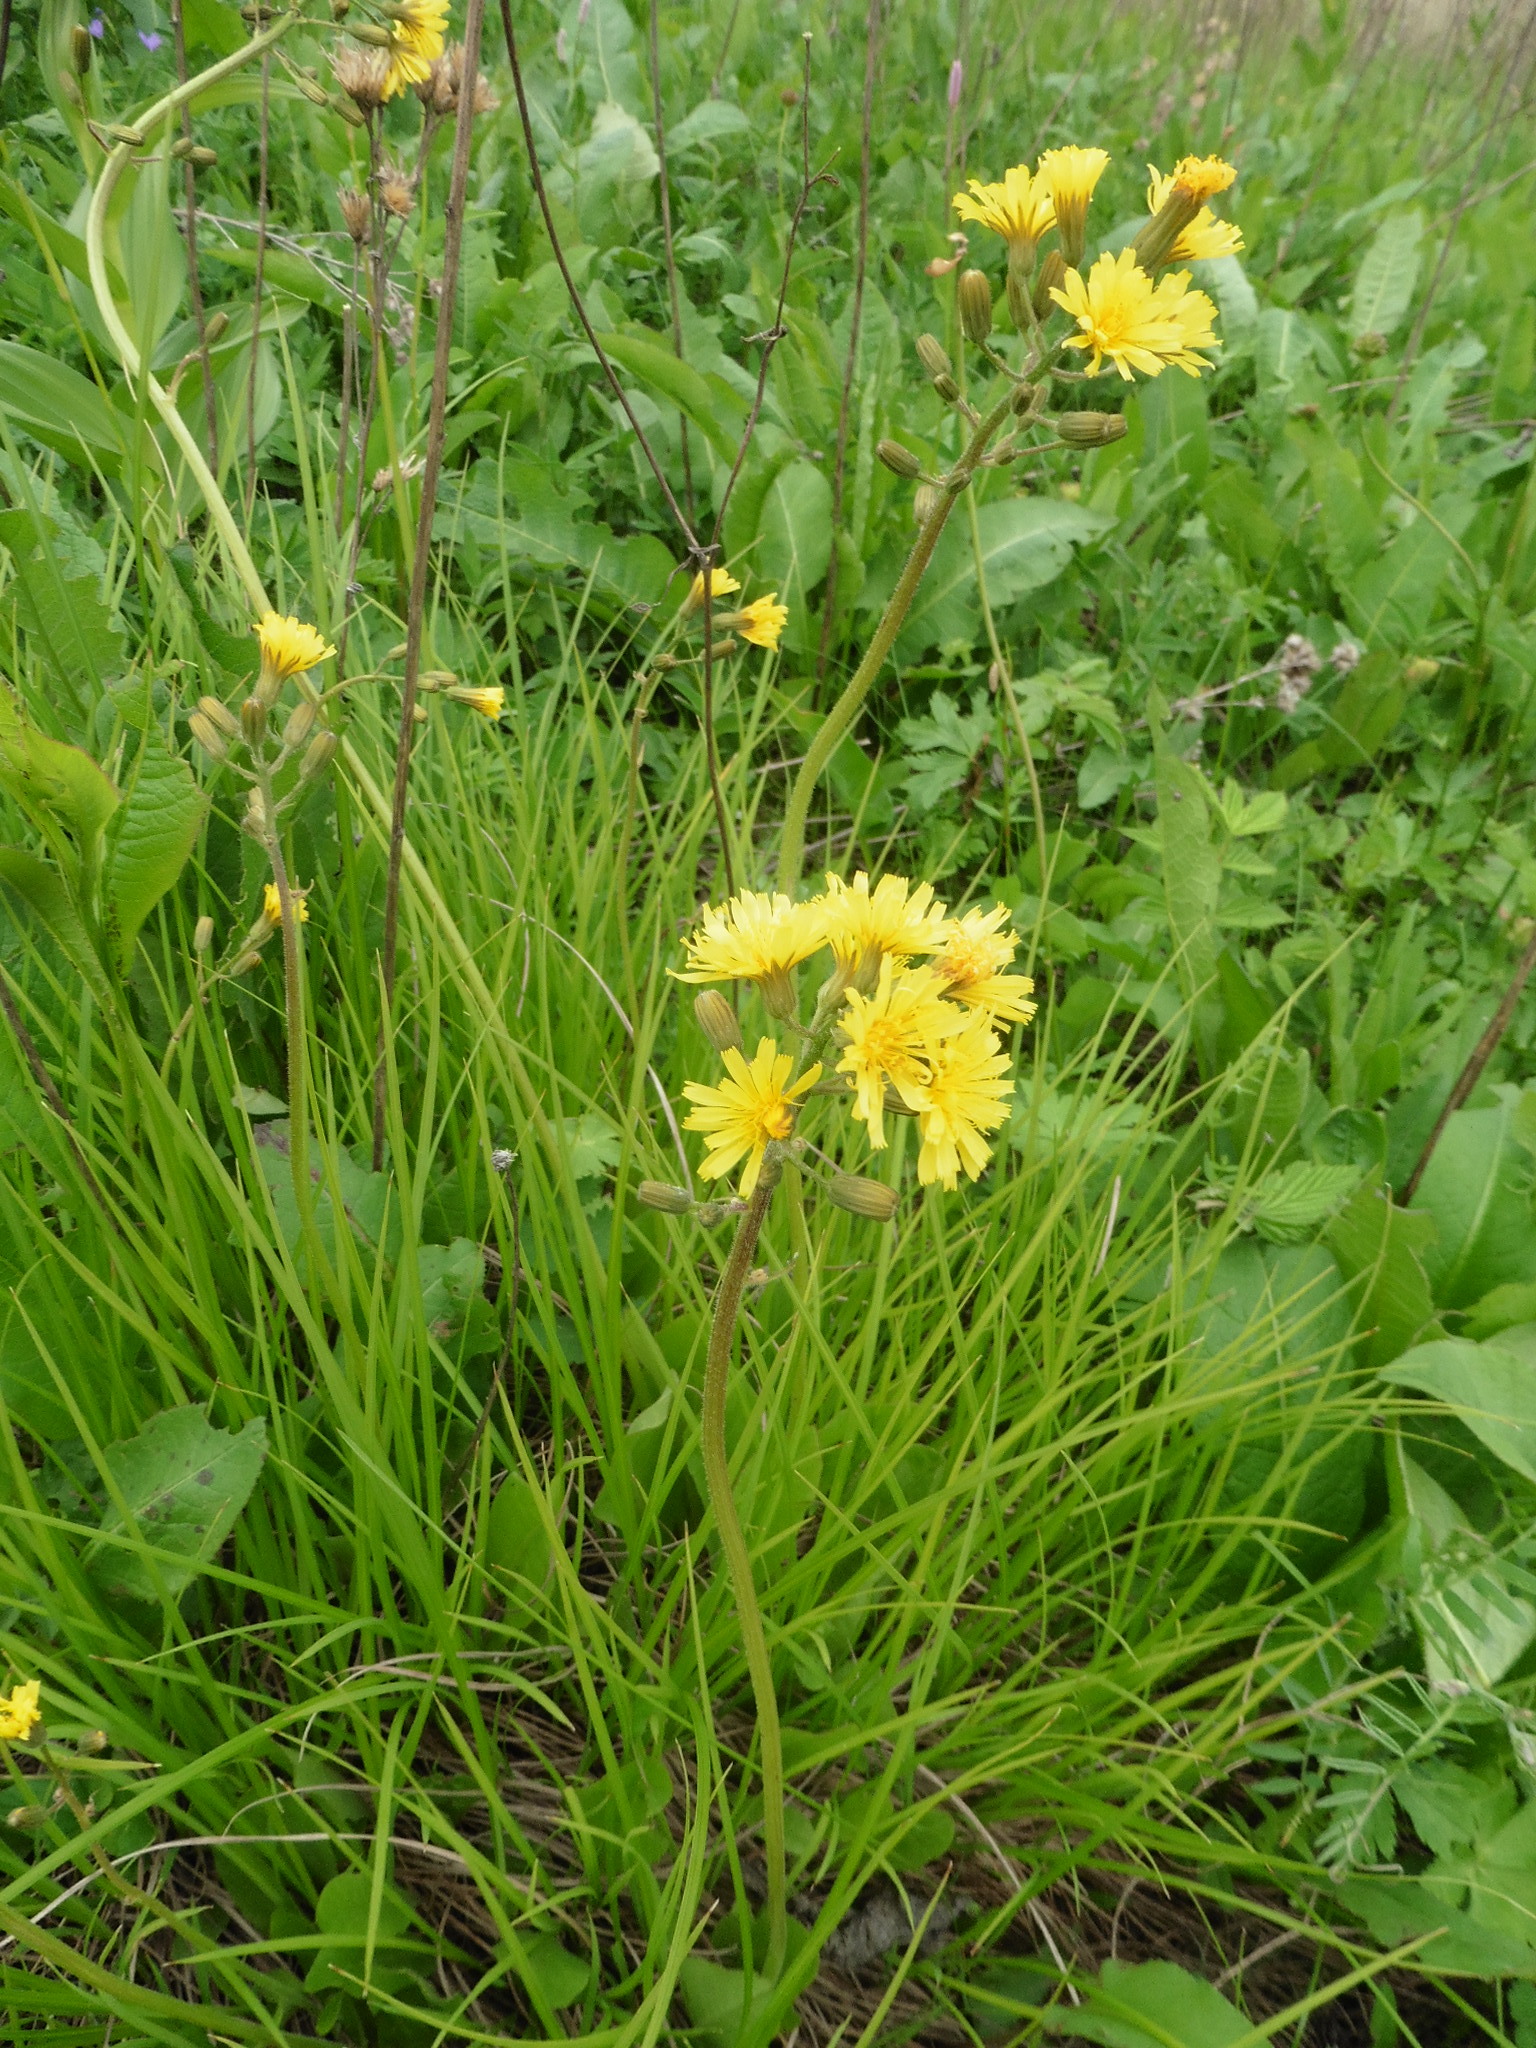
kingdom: Plantae
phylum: Tracheophyta
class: Magnoliopsida
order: Asterales
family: Asteraceae
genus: Crepis
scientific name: Crepis praemorsa
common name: Leafless hawk's-beard
